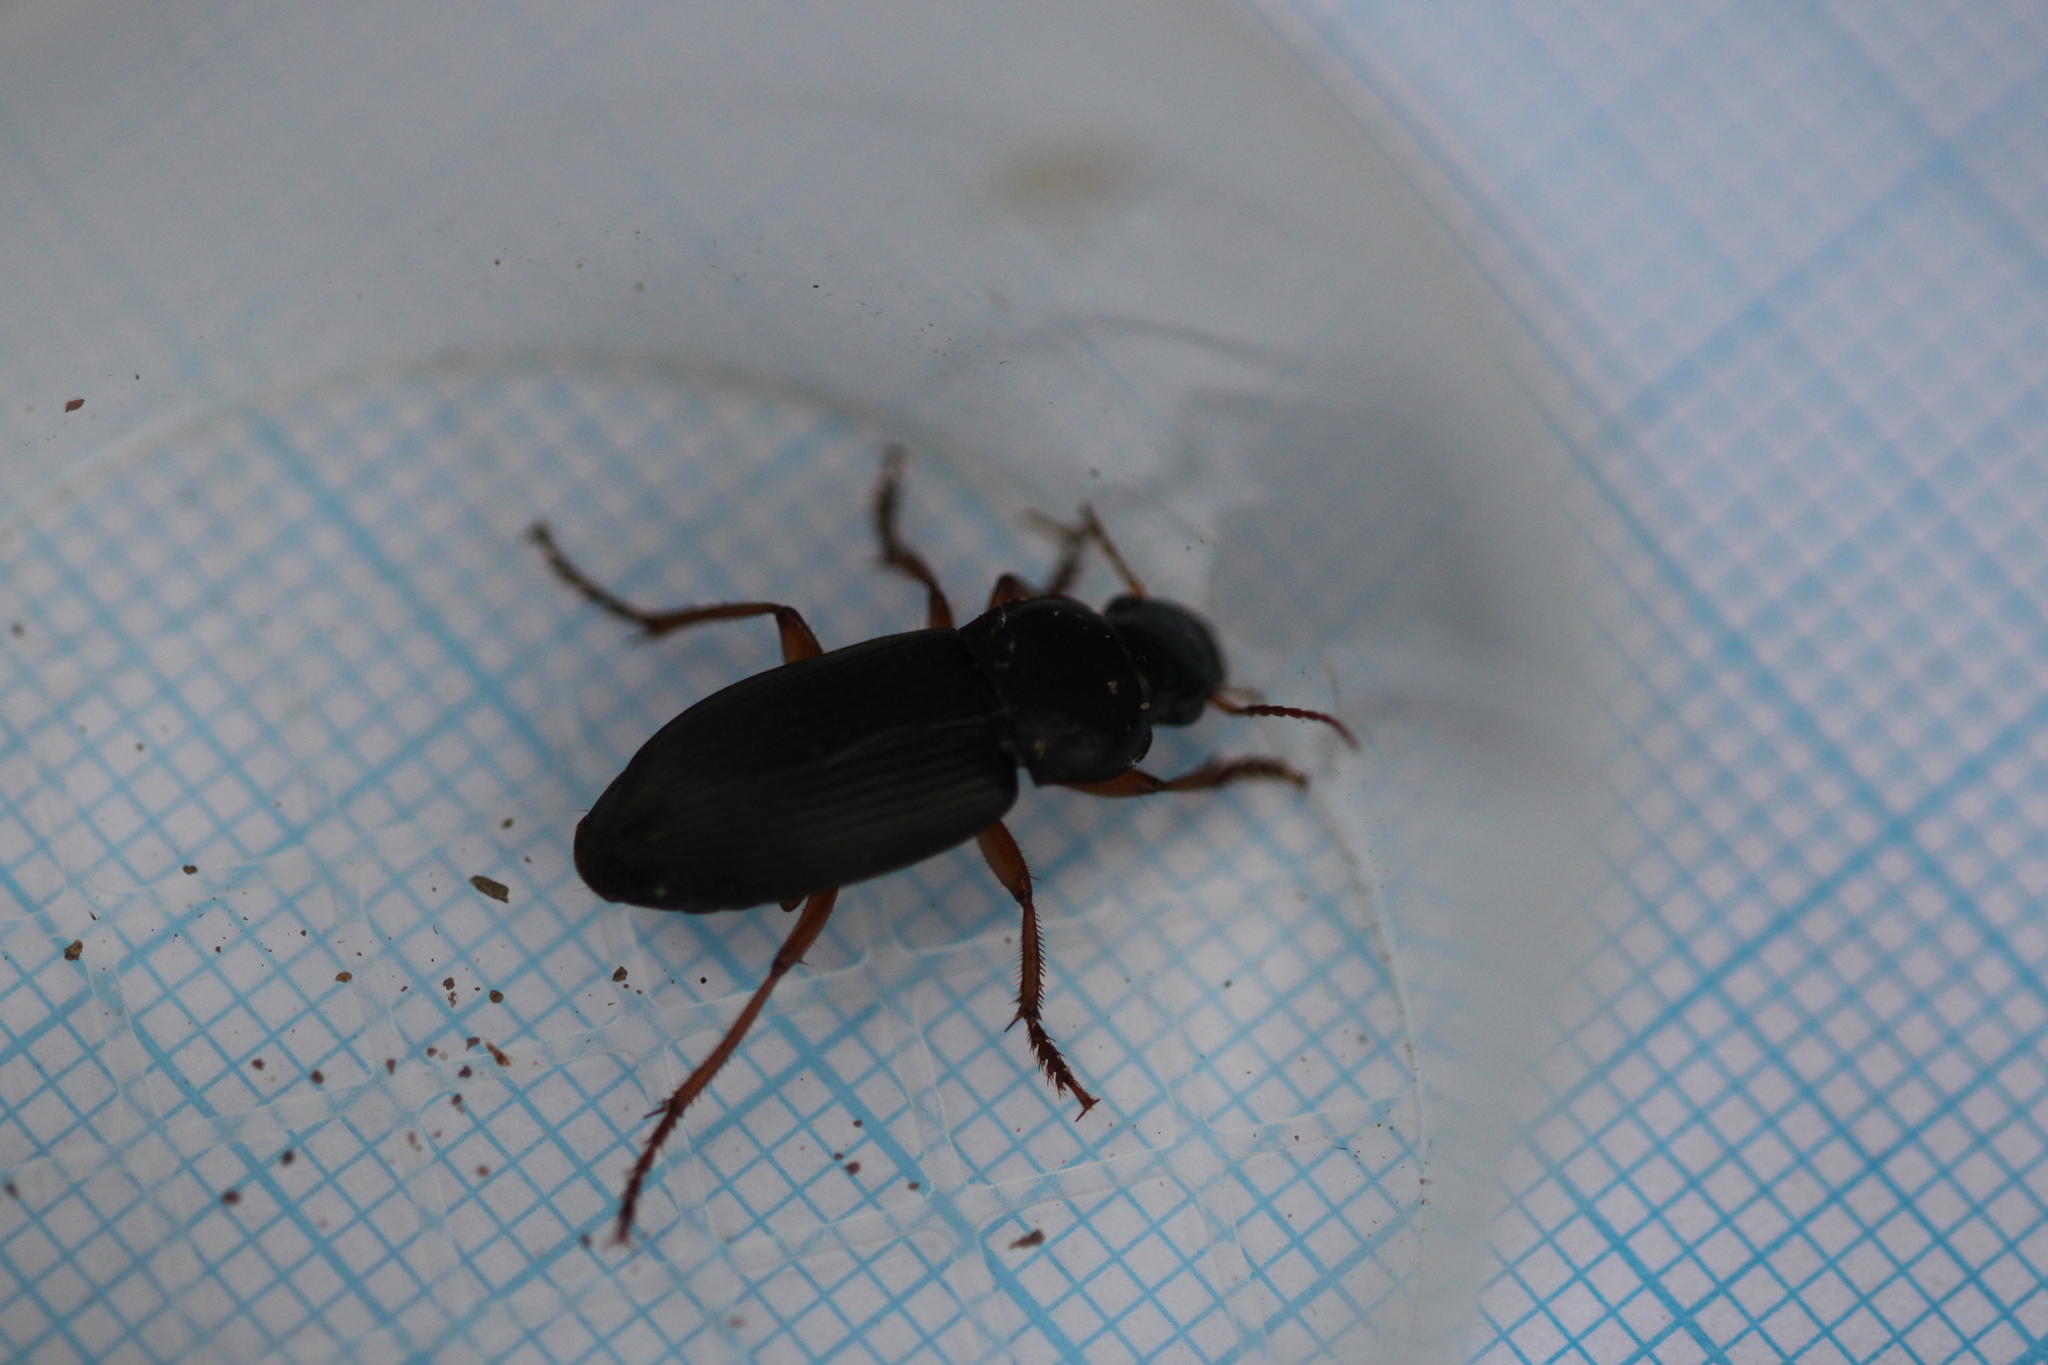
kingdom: Animalia
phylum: Arthropoda
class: Insecta
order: Coleoptera
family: Carabidae
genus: Harpalus
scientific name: Harpalus rufipes
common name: Strawberry harp ground beetle
